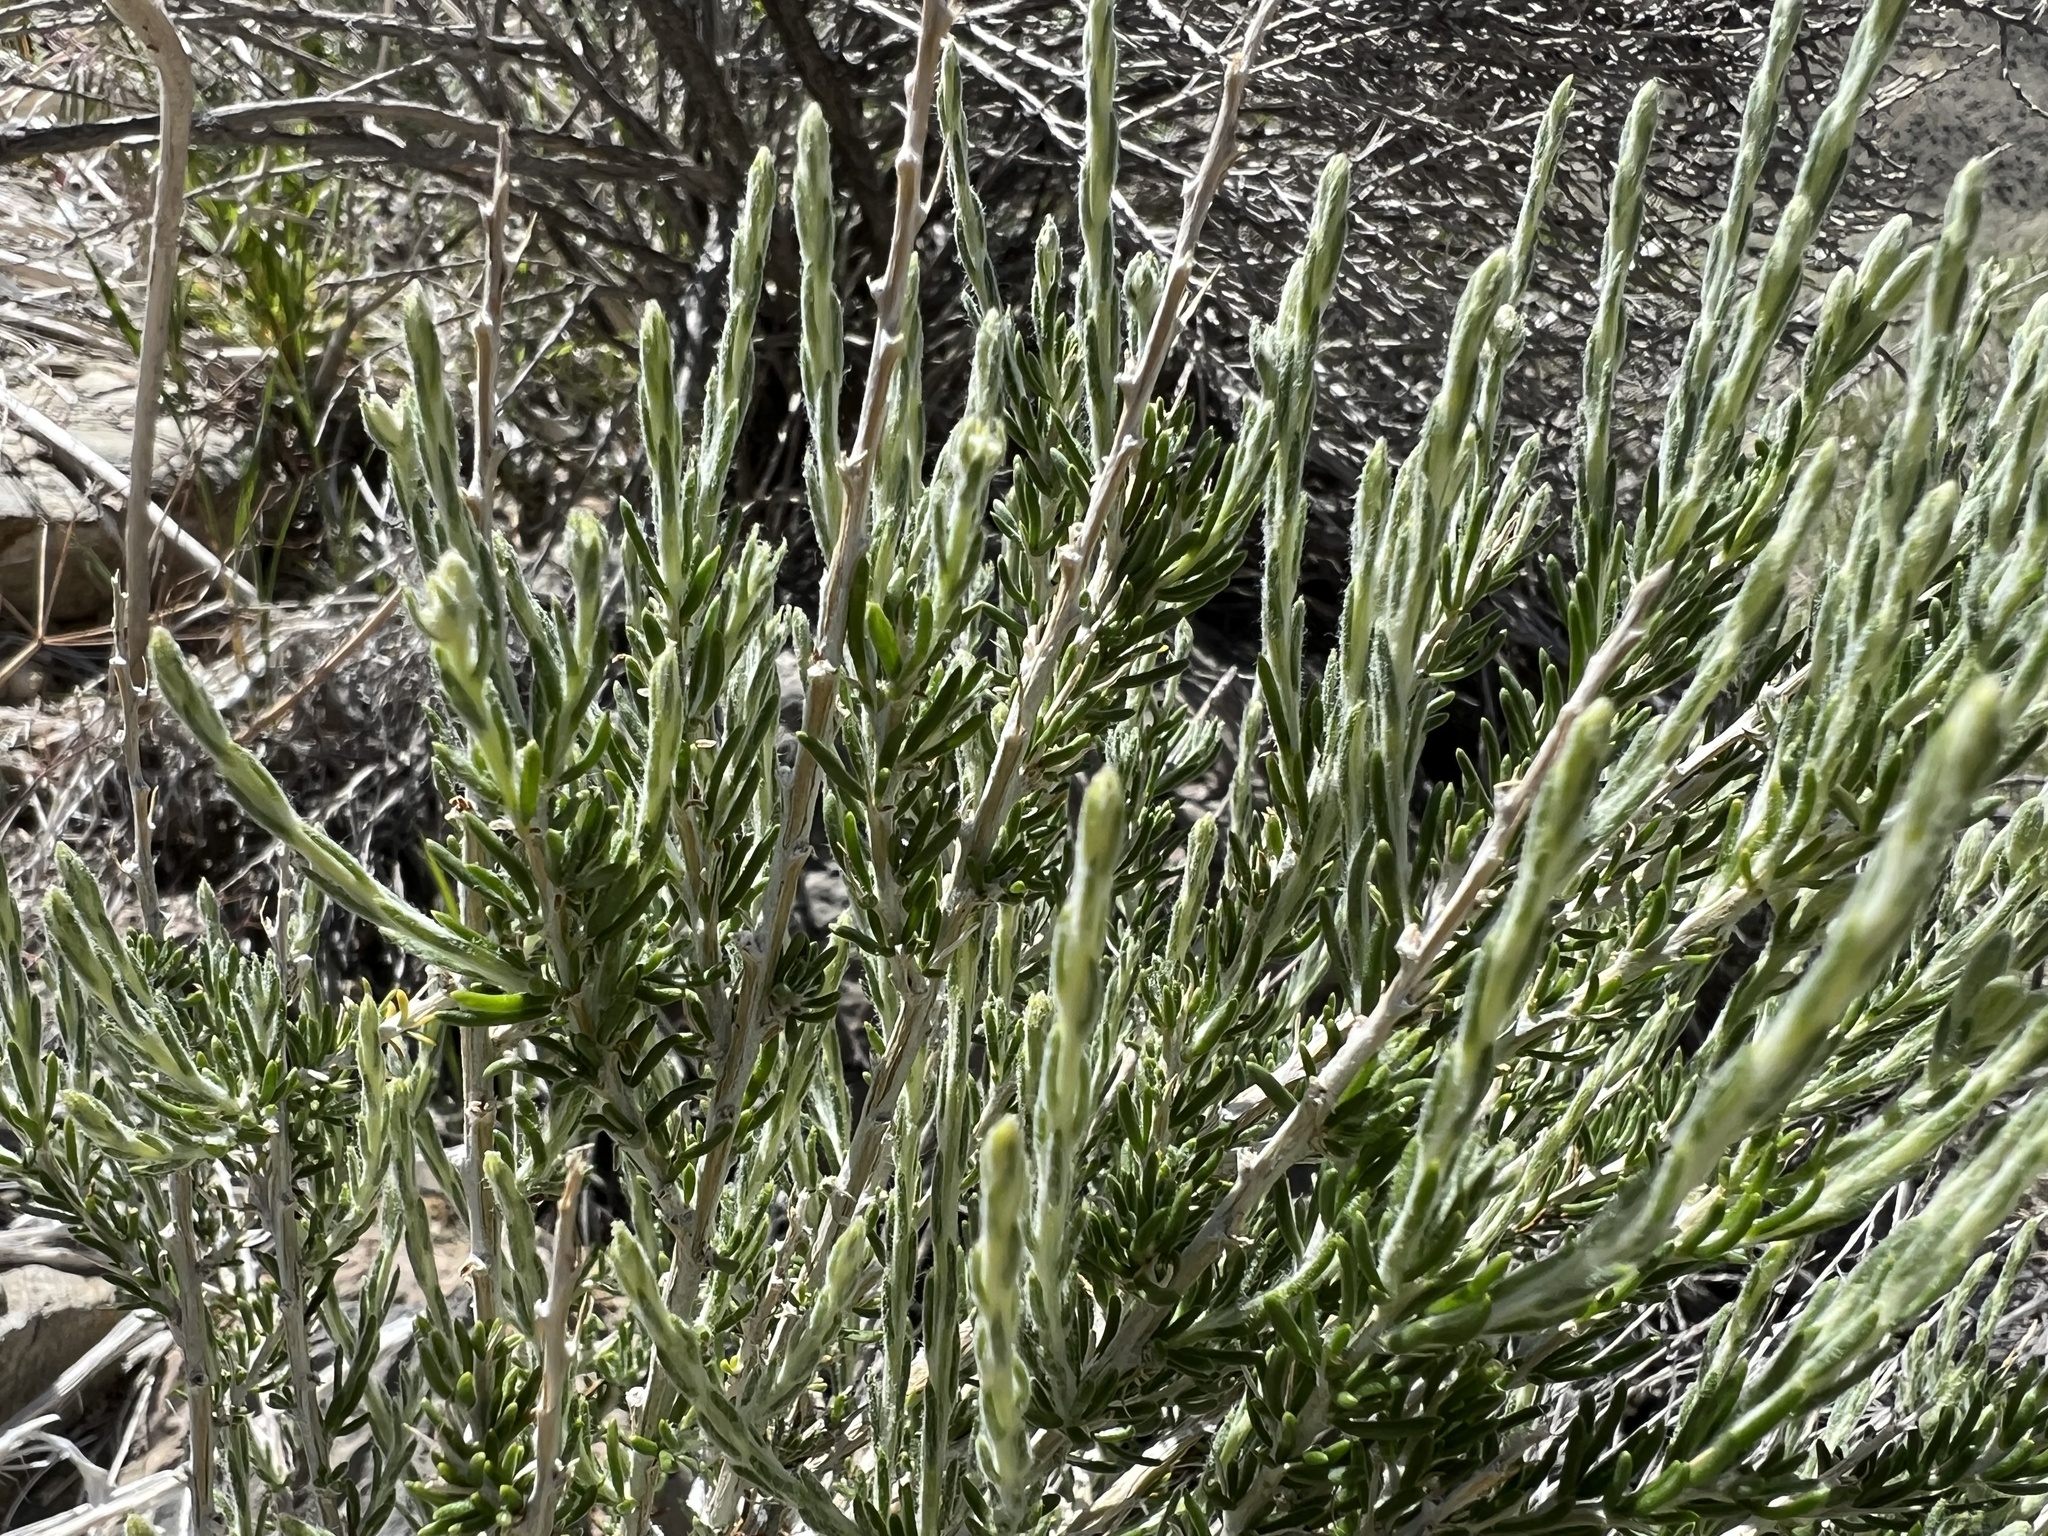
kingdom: Plantae
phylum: Tracheophyta
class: Magnoliopsida
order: Asterales
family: Asteraceae
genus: Tetradymia
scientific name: Tetradymia glabrata
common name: Smooth tetradymia
